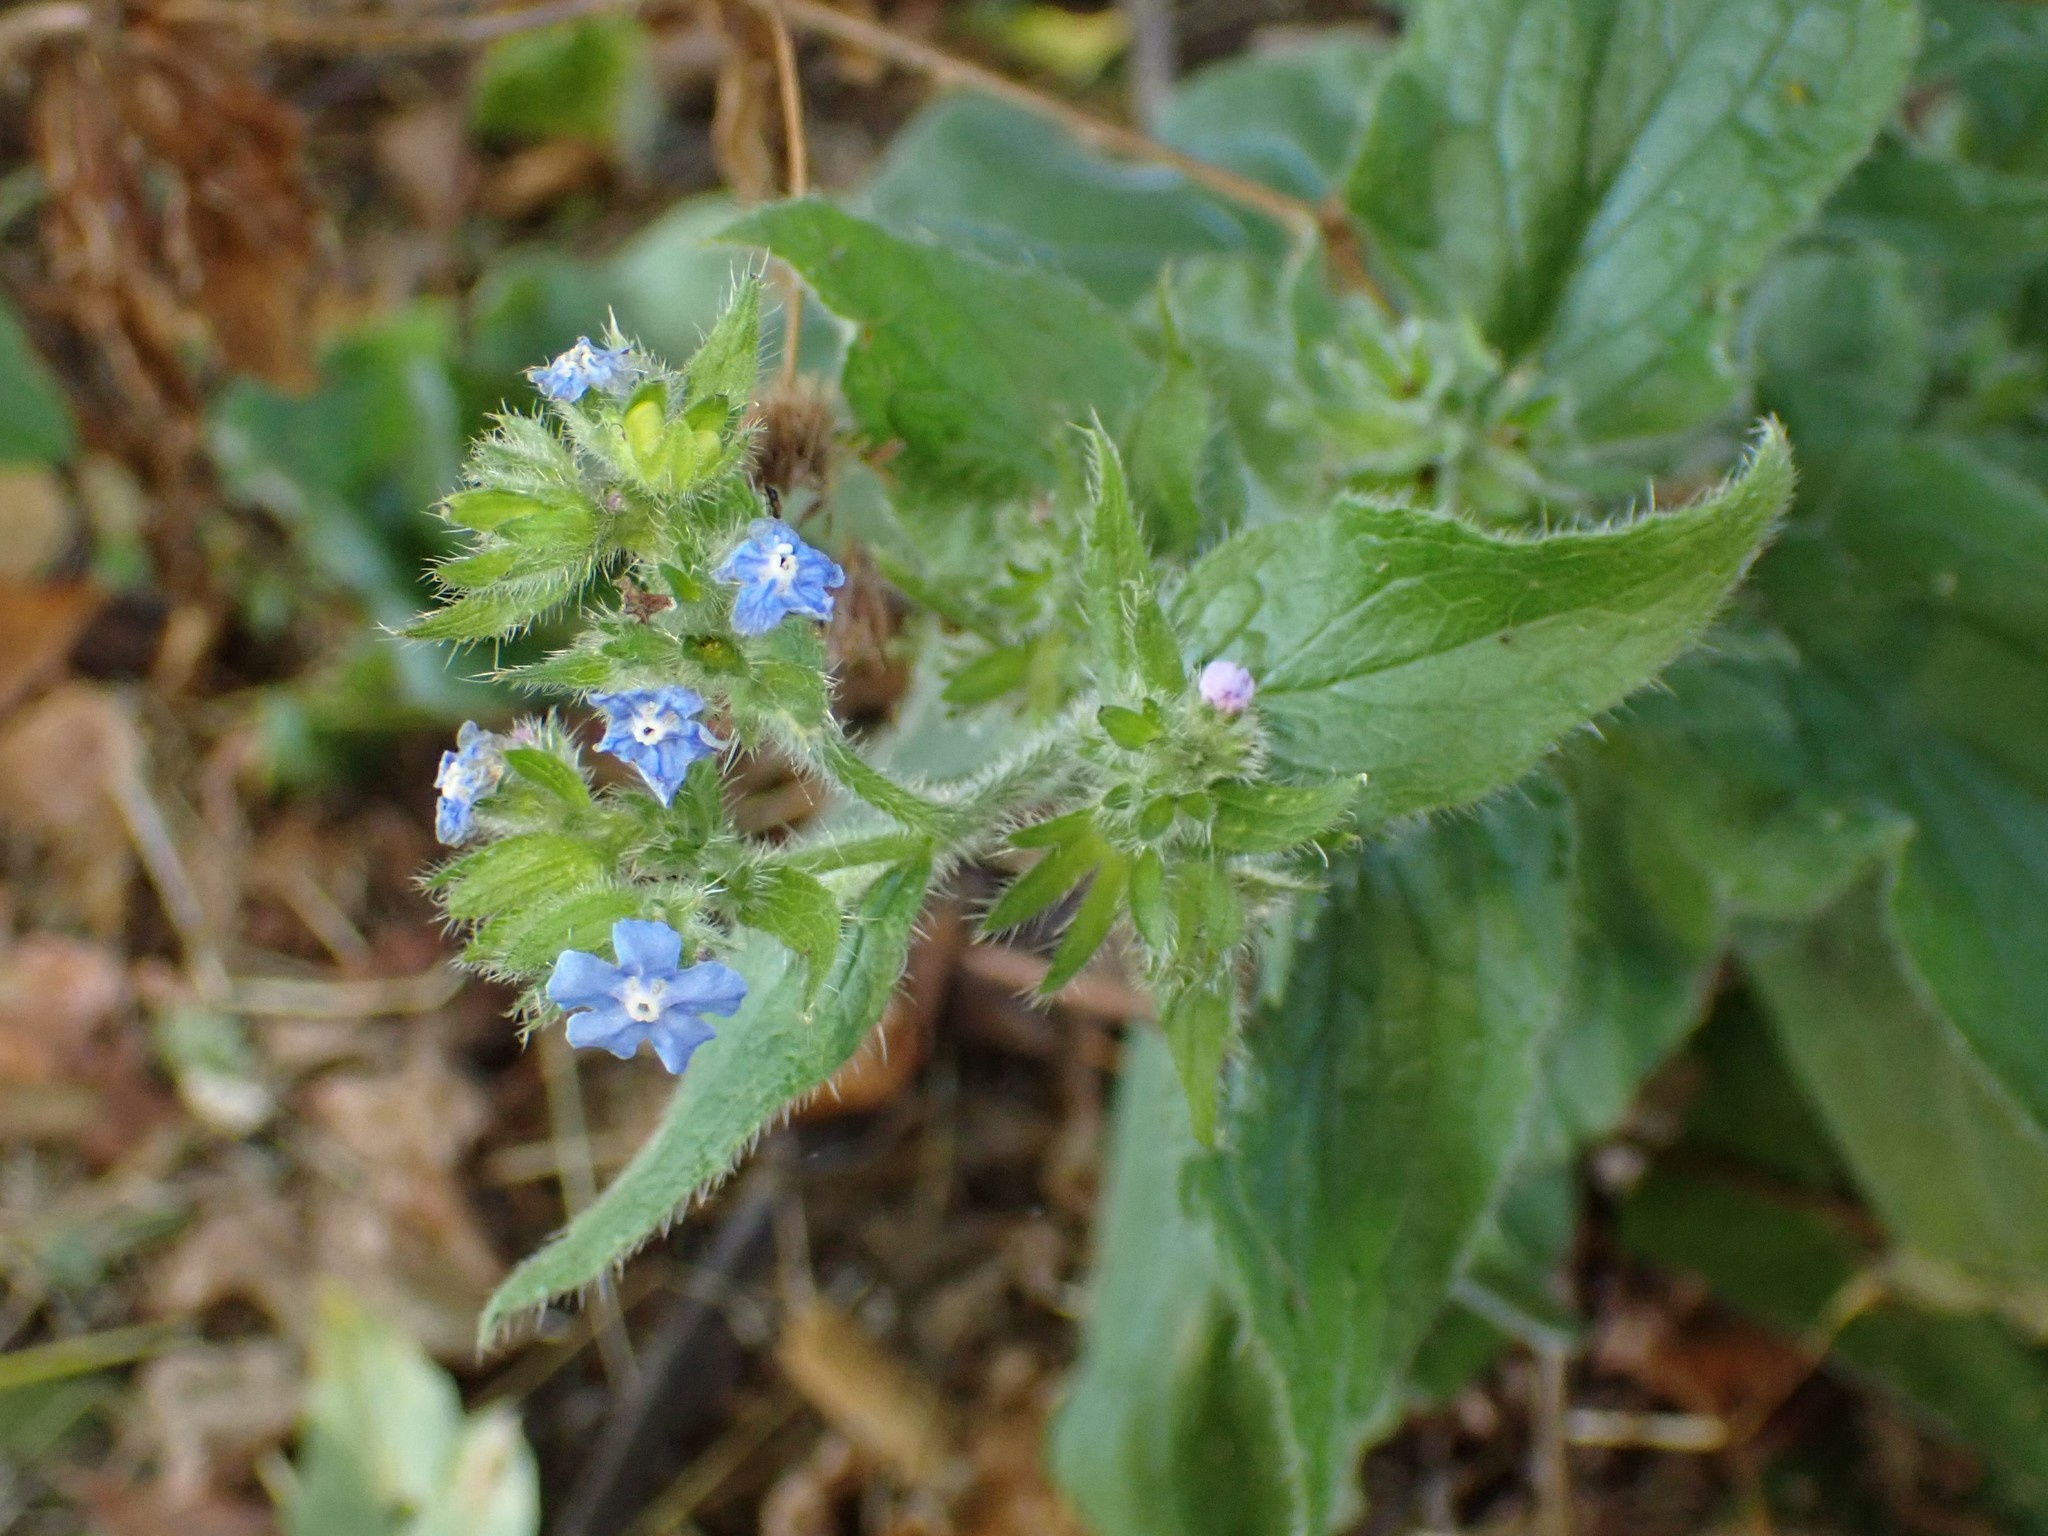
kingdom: Plantae
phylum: Tracheophyta
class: Magnoliopsida
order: Boraginales
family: Boraginaceae
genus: Pentaglottis
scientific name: Pentaglottis sempervirens
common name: Green alkanet
